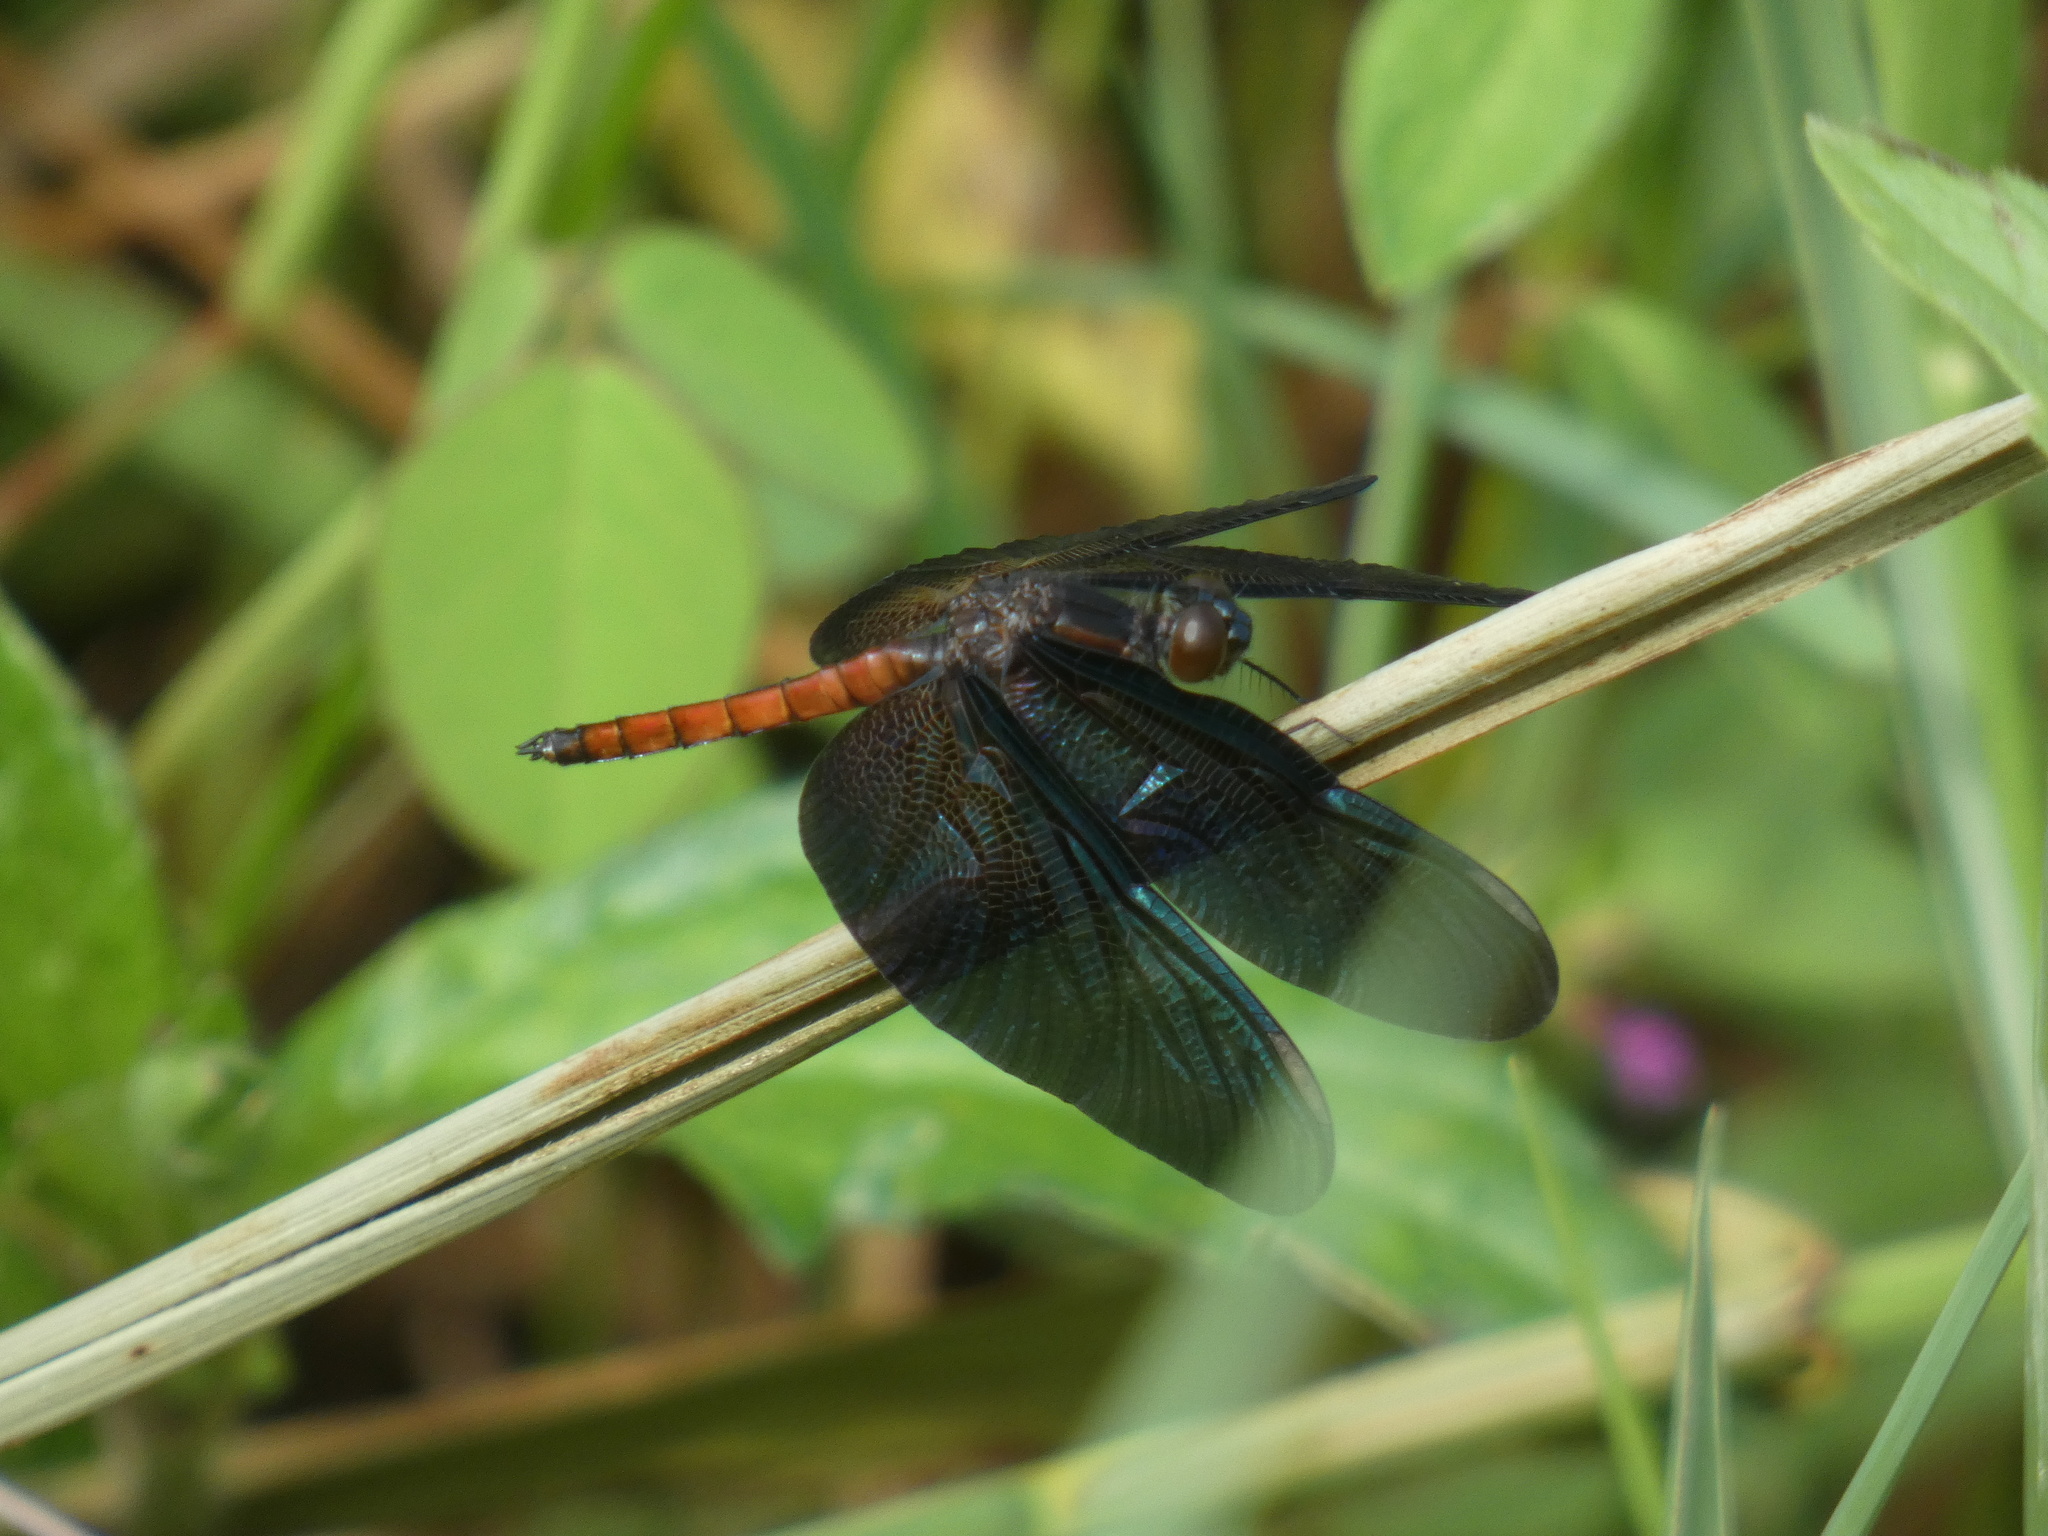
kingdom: Animalia
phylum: Arthropoda
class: Insecta
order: Odonata
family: Libellulidae
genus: Diastatops
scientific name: Diastatops obscura
